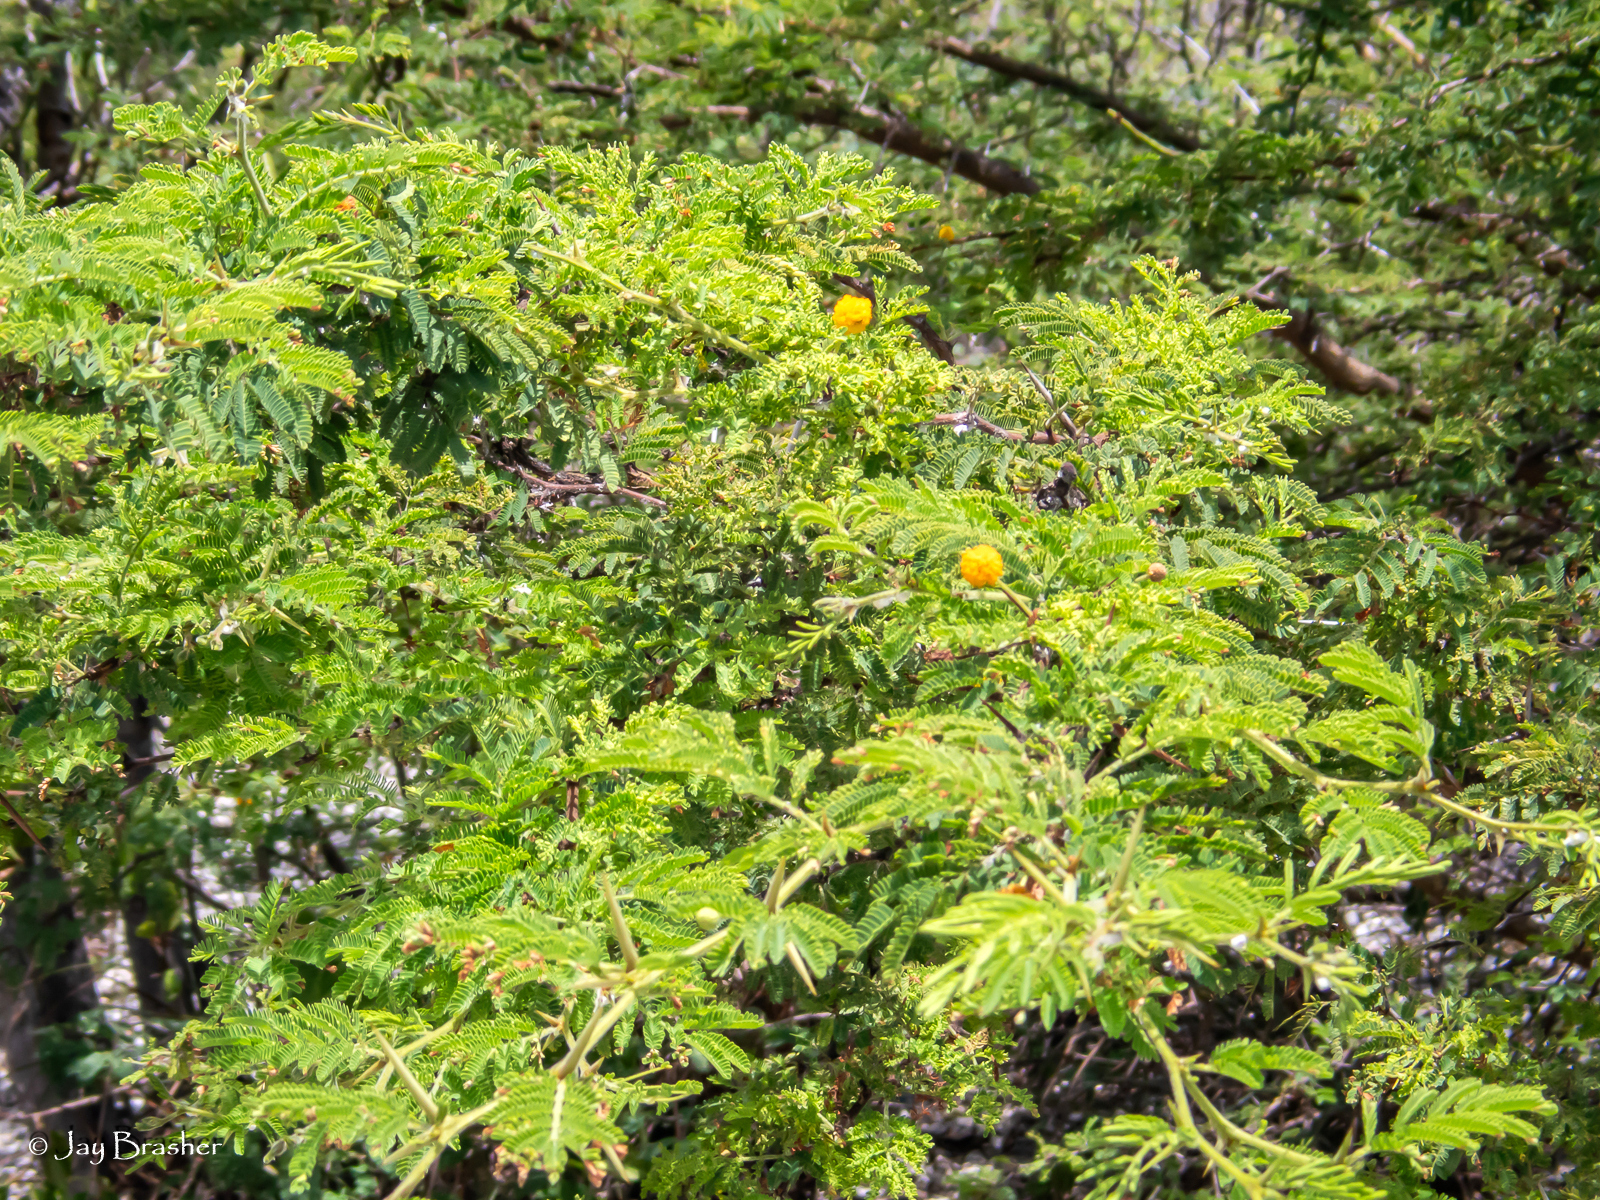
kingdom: Plantae
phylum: Tracheophyta
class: Magnoliopsida
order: Fabales
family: Fabaceae
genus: Vachellia
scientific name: Vachellia tortuosa
